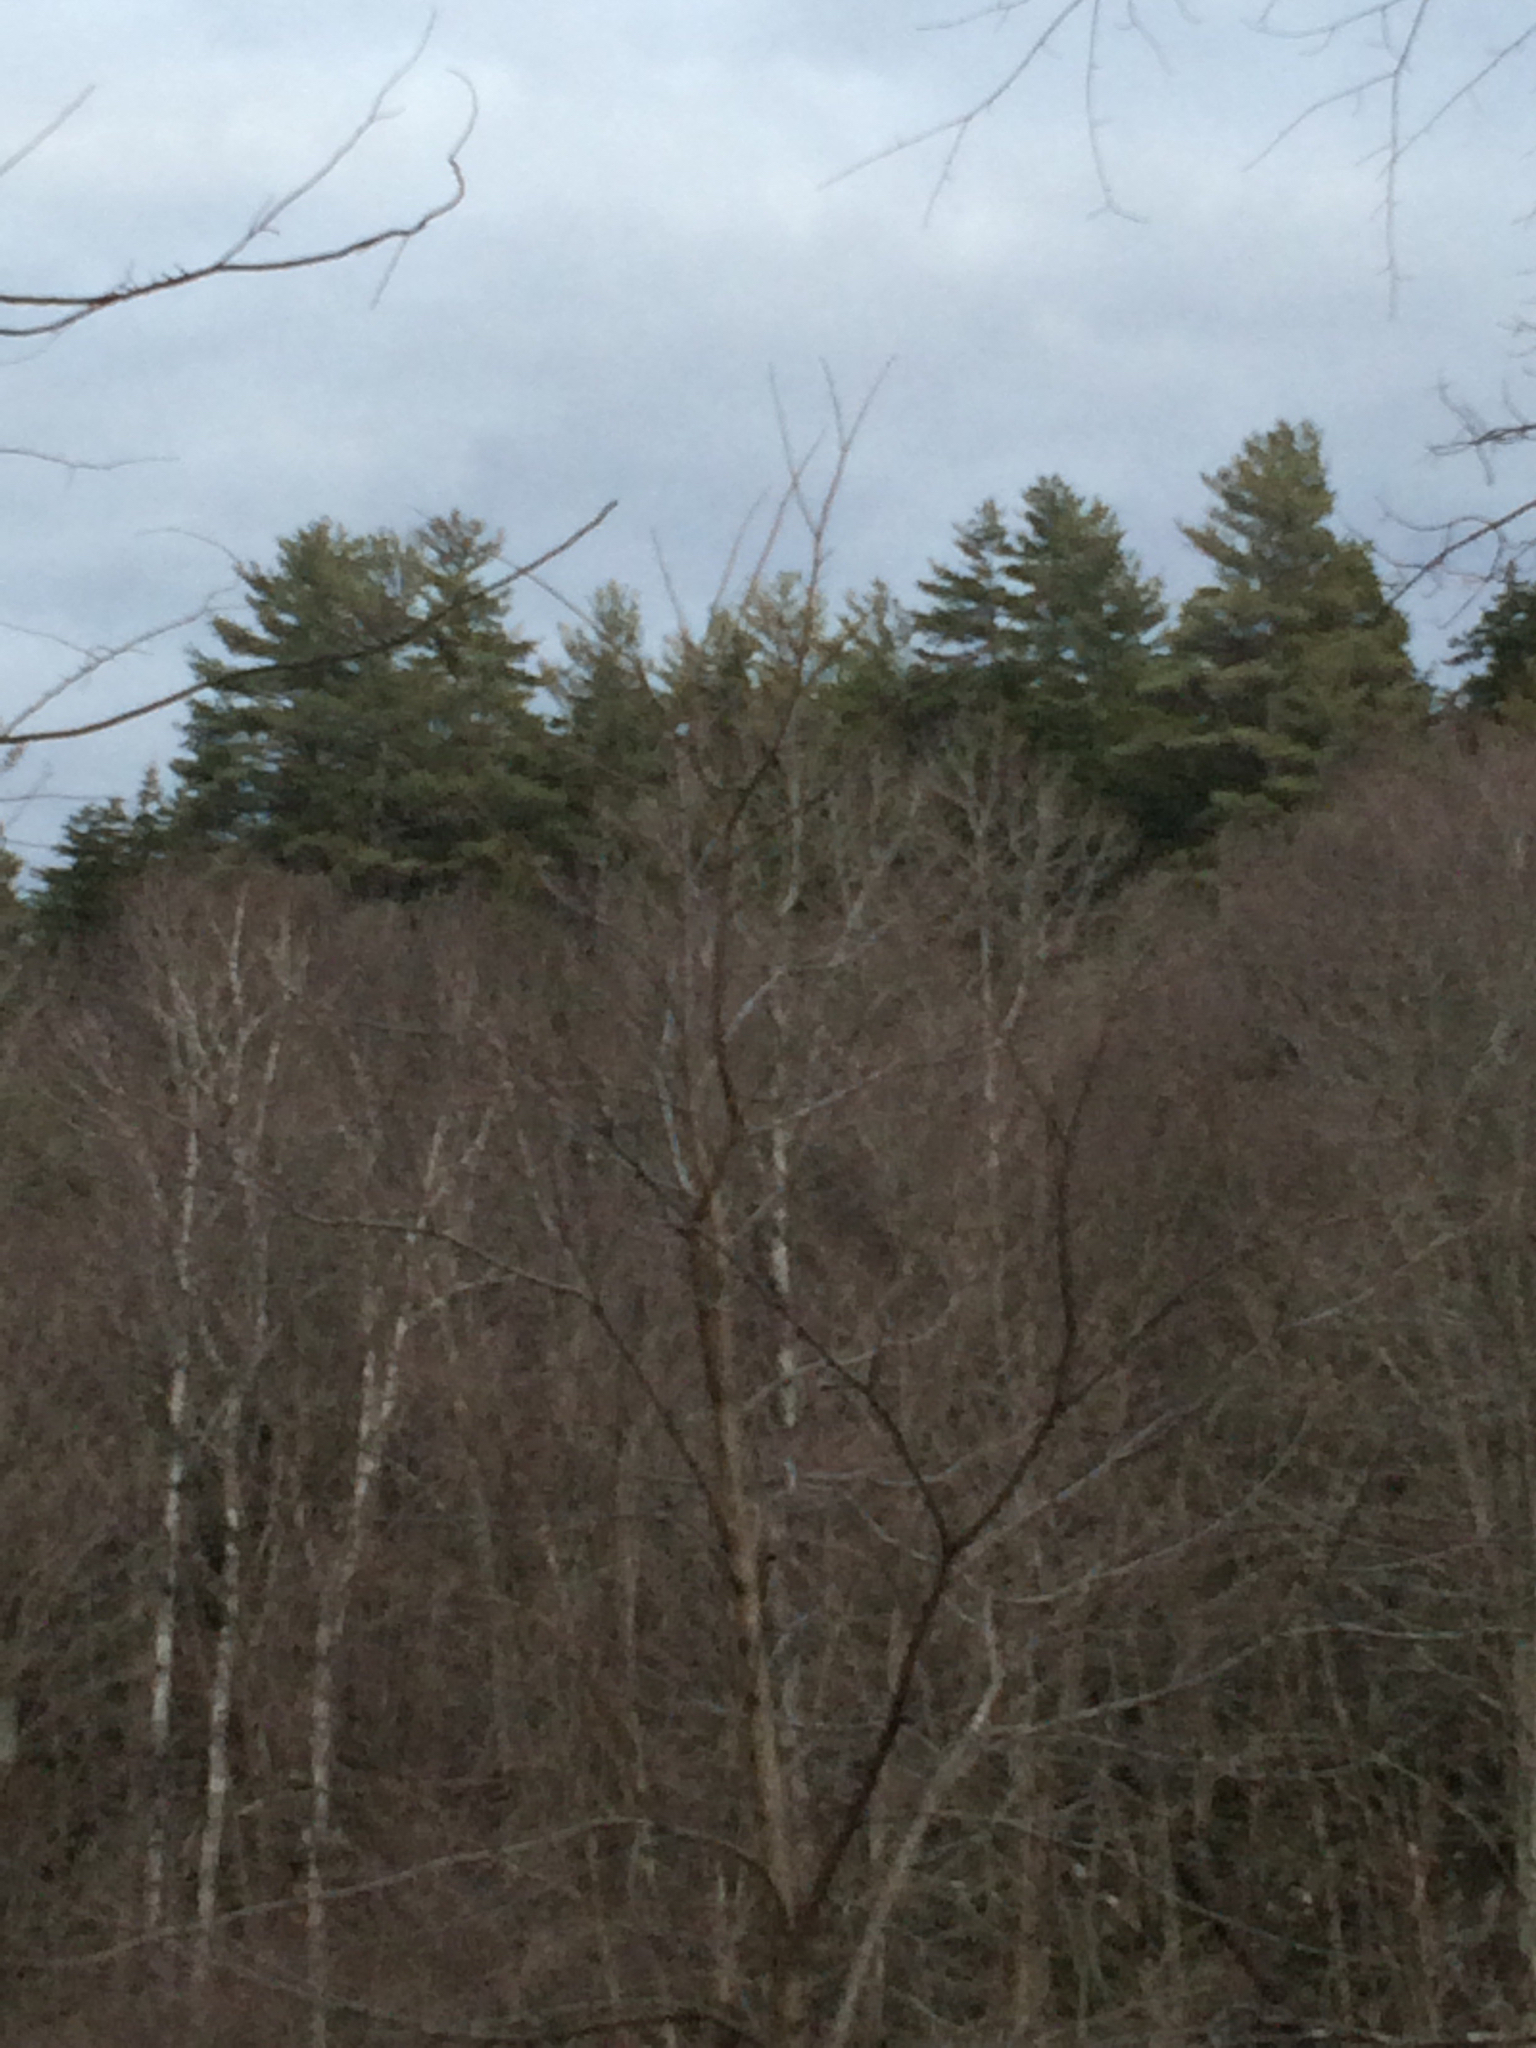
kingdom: Plantae
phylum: Tracheophyta
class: Pinopsida
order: Pinales
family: Pinaceae
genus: Pinus
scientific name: Pinus strobus
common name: Weymouth pine
